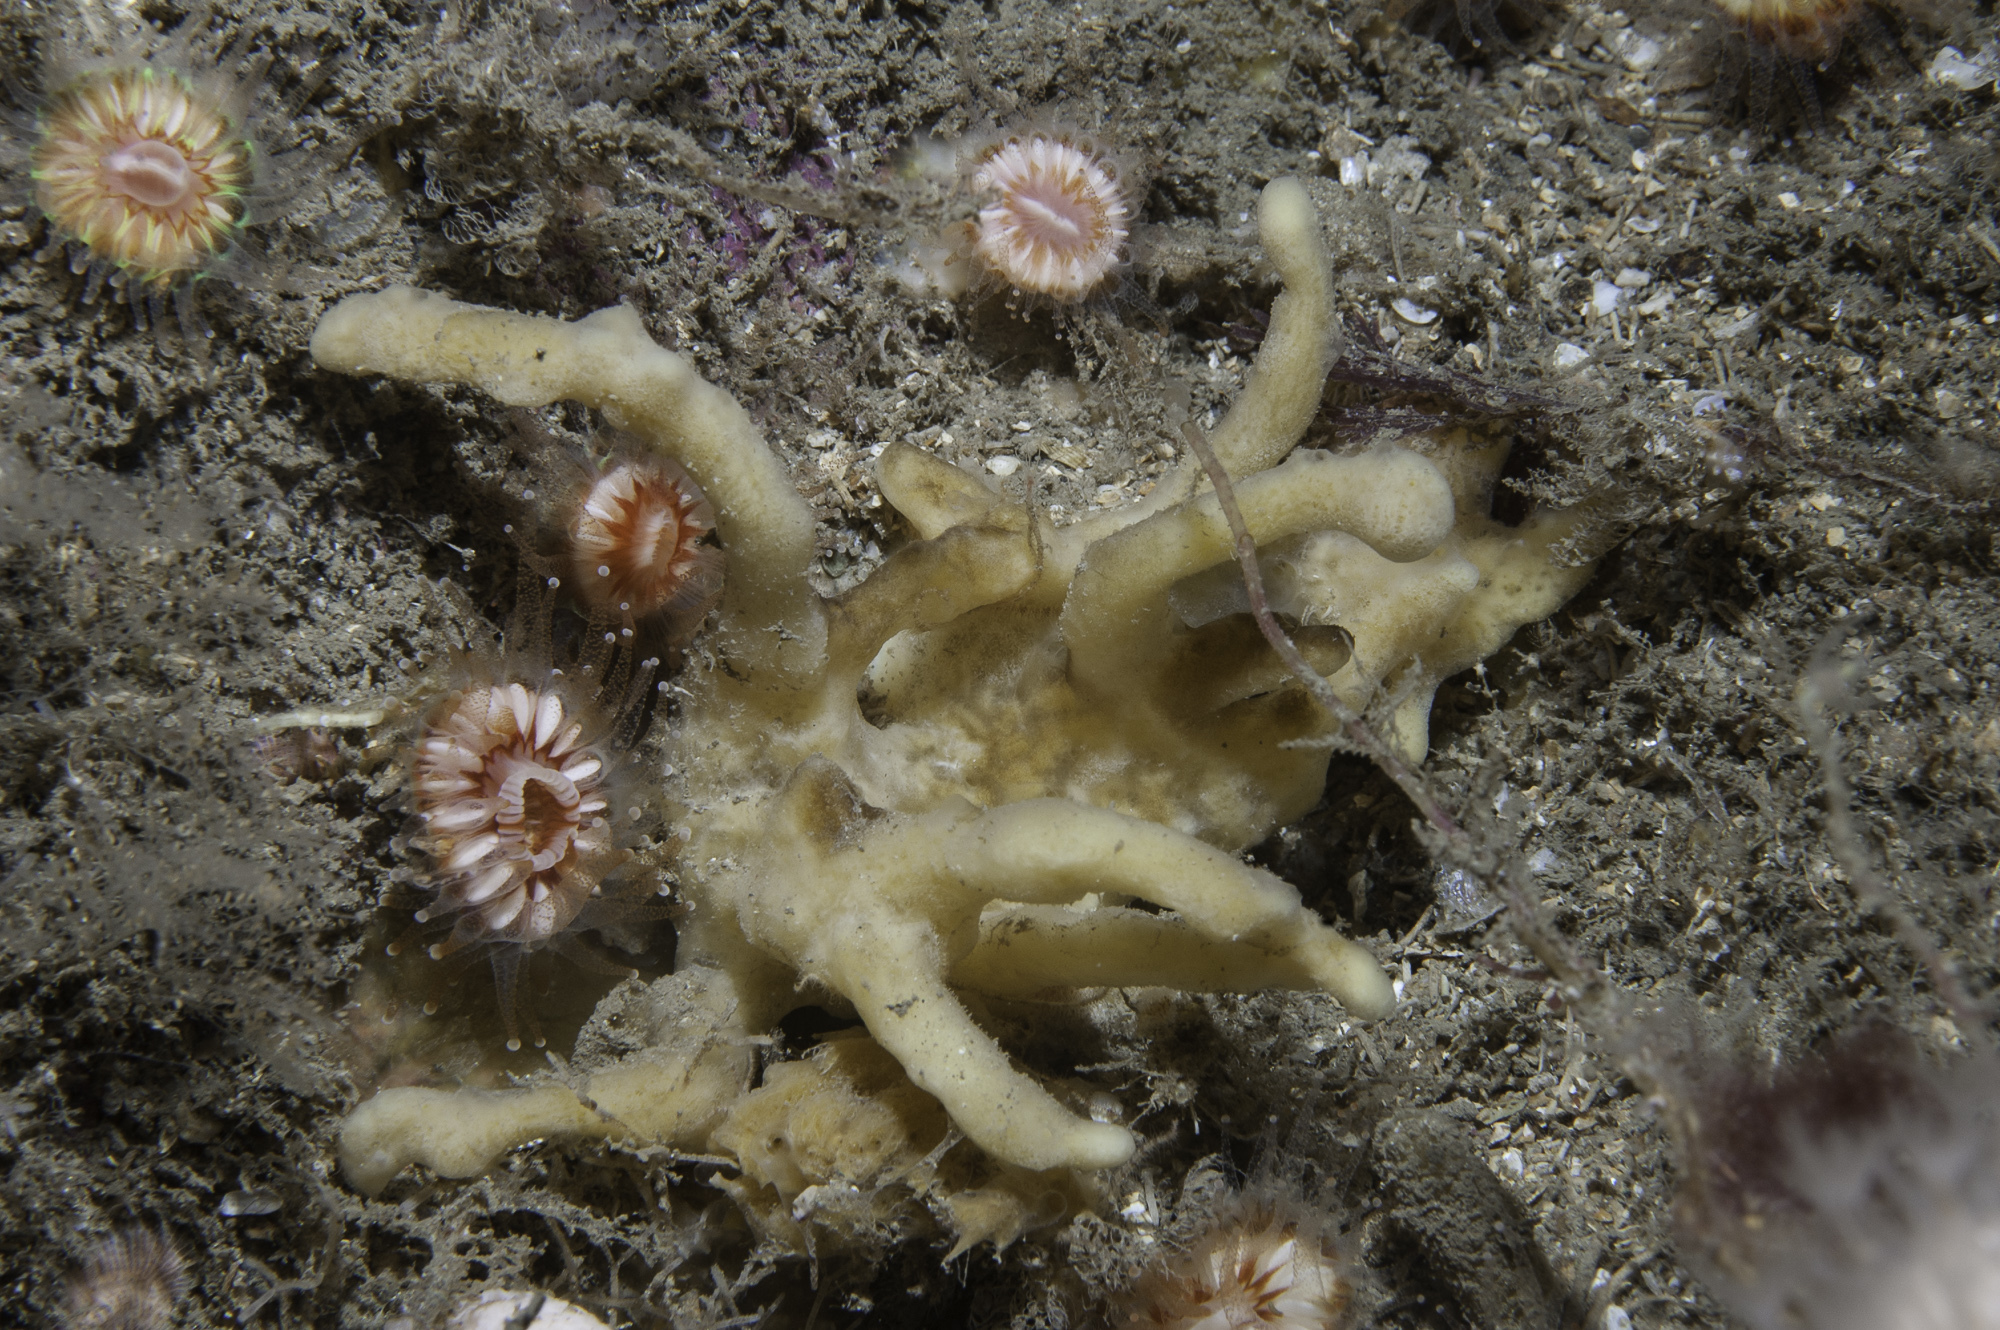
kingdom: Animalia
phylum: Porifera
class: Demospongiae
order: Poecilosclerida
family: Acarnidae
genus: Iophon
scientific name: Iophon nigricans
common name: Yellow-fingered horny sponge
